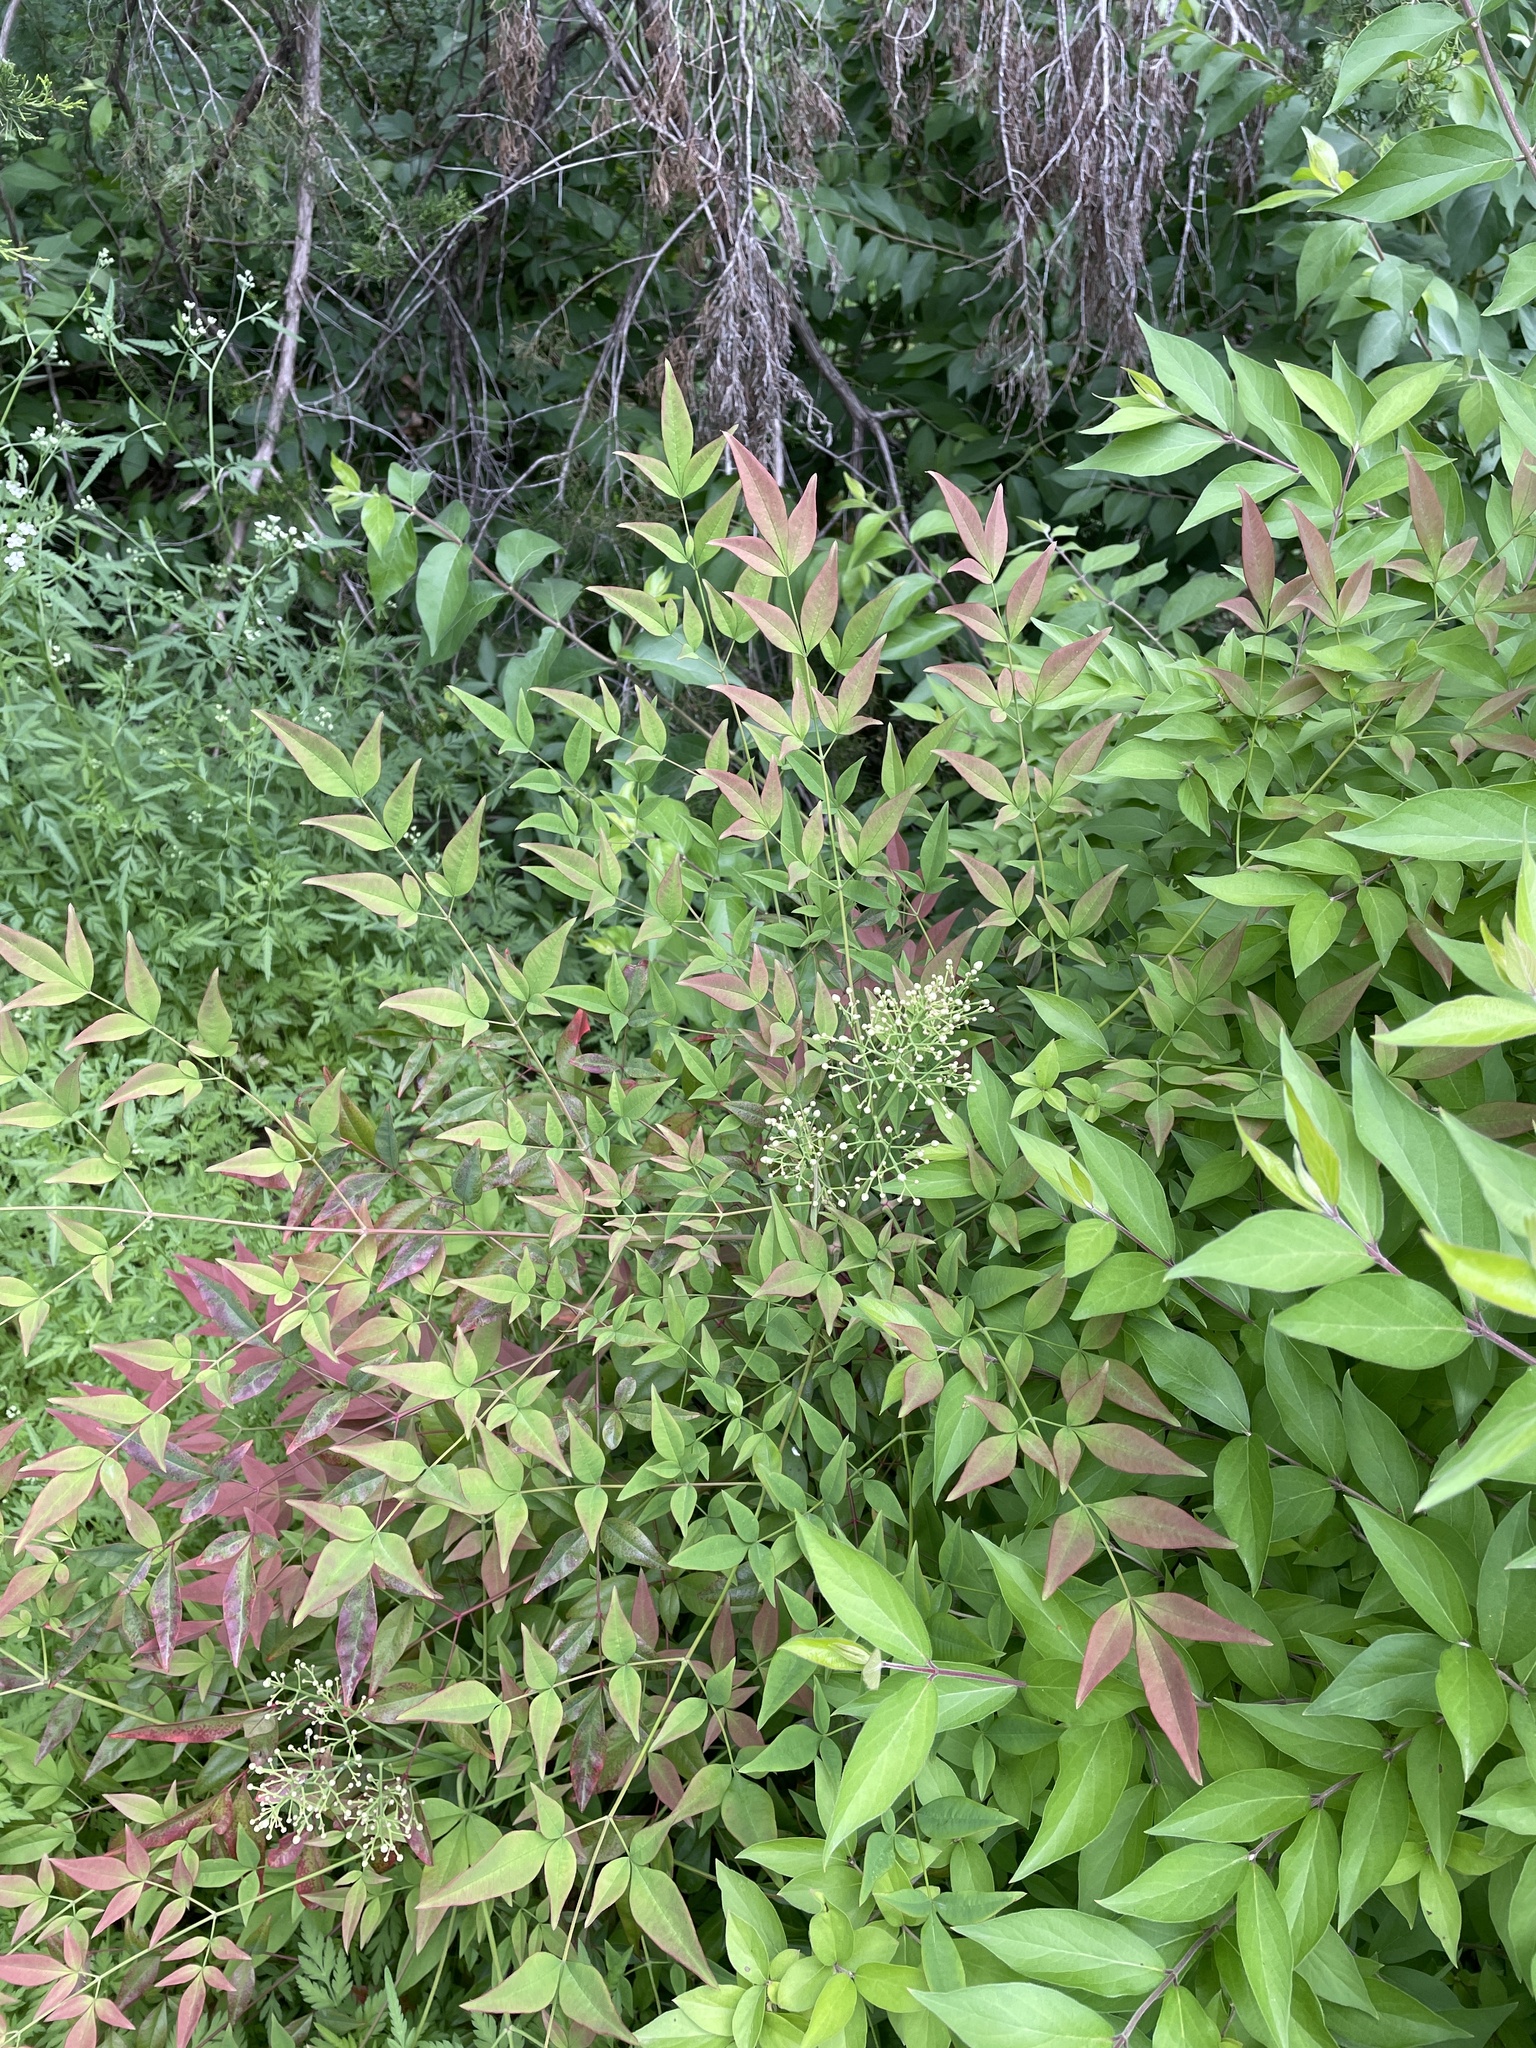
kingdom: Plantae
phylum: Tracheophyta
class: Magnoliopsida
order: Ranunculales
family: Berberidaceae
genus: Nandina
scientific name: Nandina domestica
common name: Sacred bamboo
